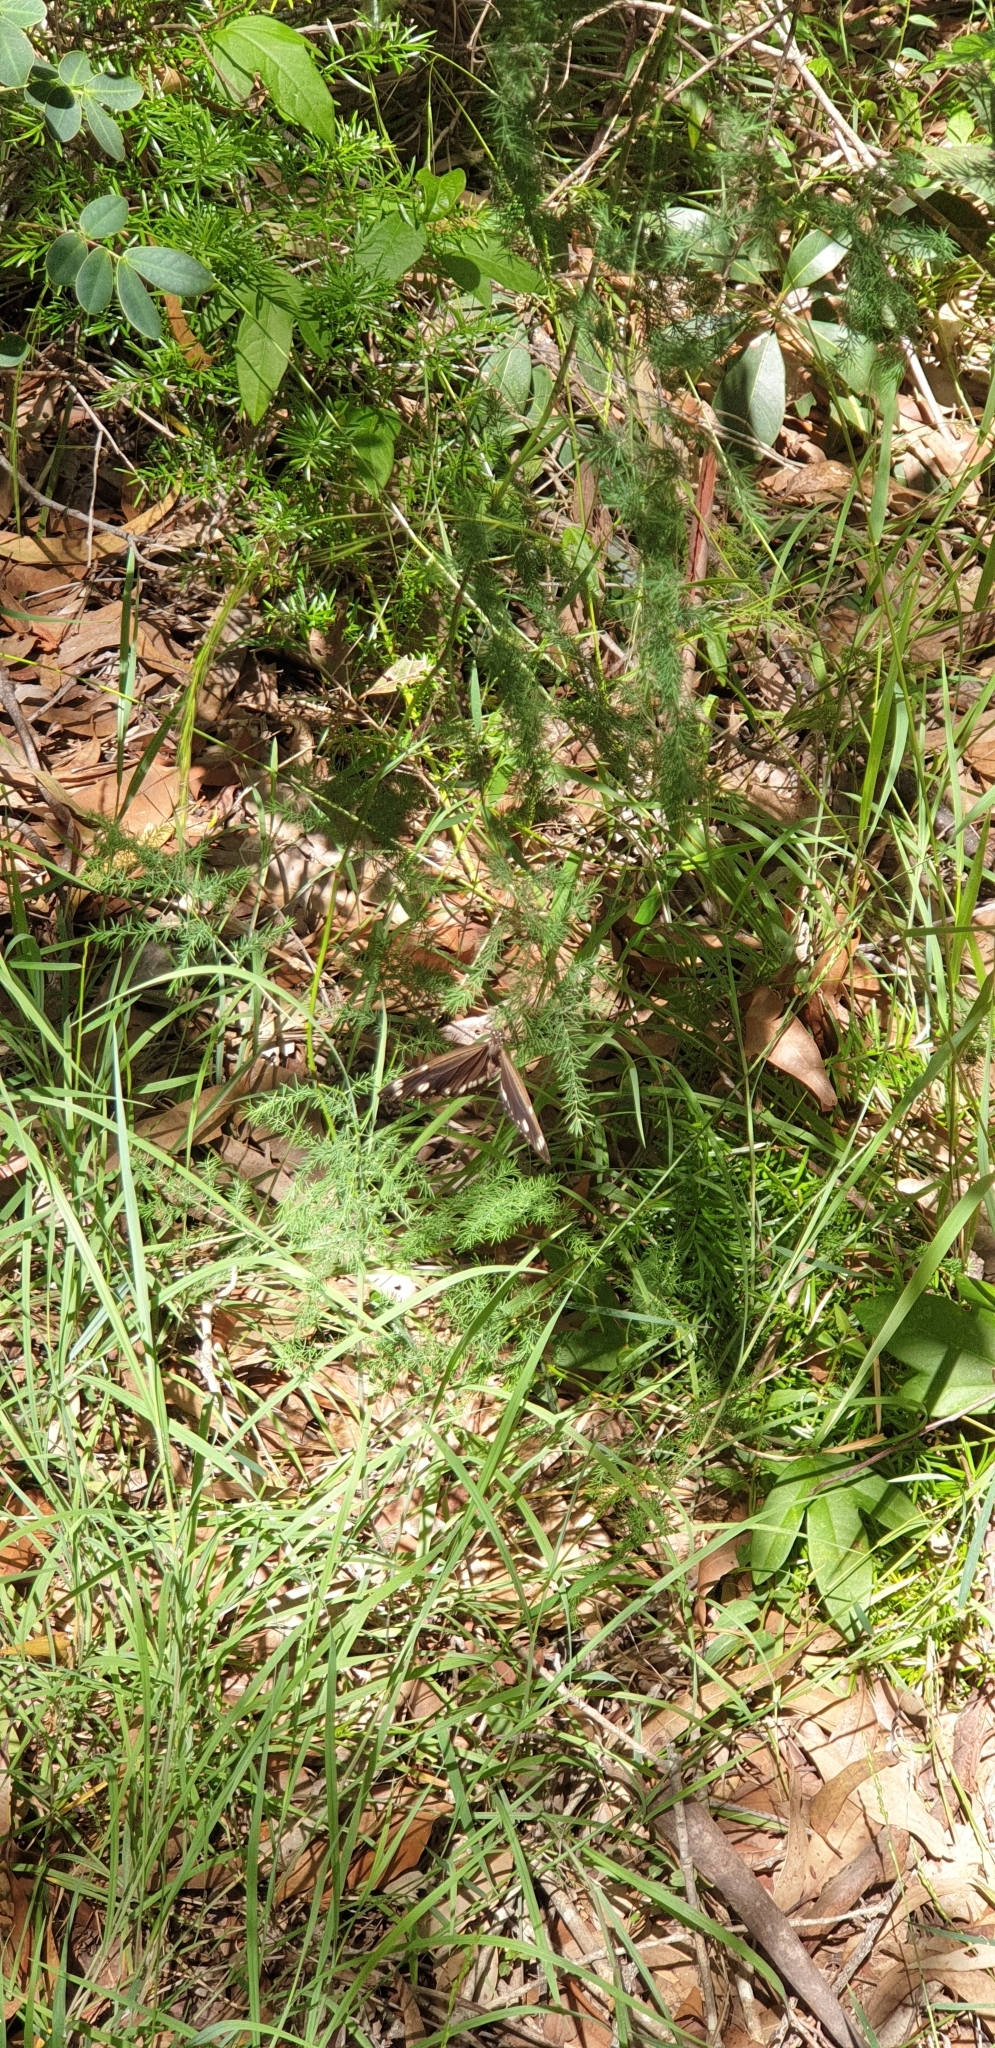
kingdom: Animalia
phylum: Arthropoda
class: Insecta
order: Lepidoptera
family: Nymphalidae
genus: Euploea
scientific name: Euploea core
